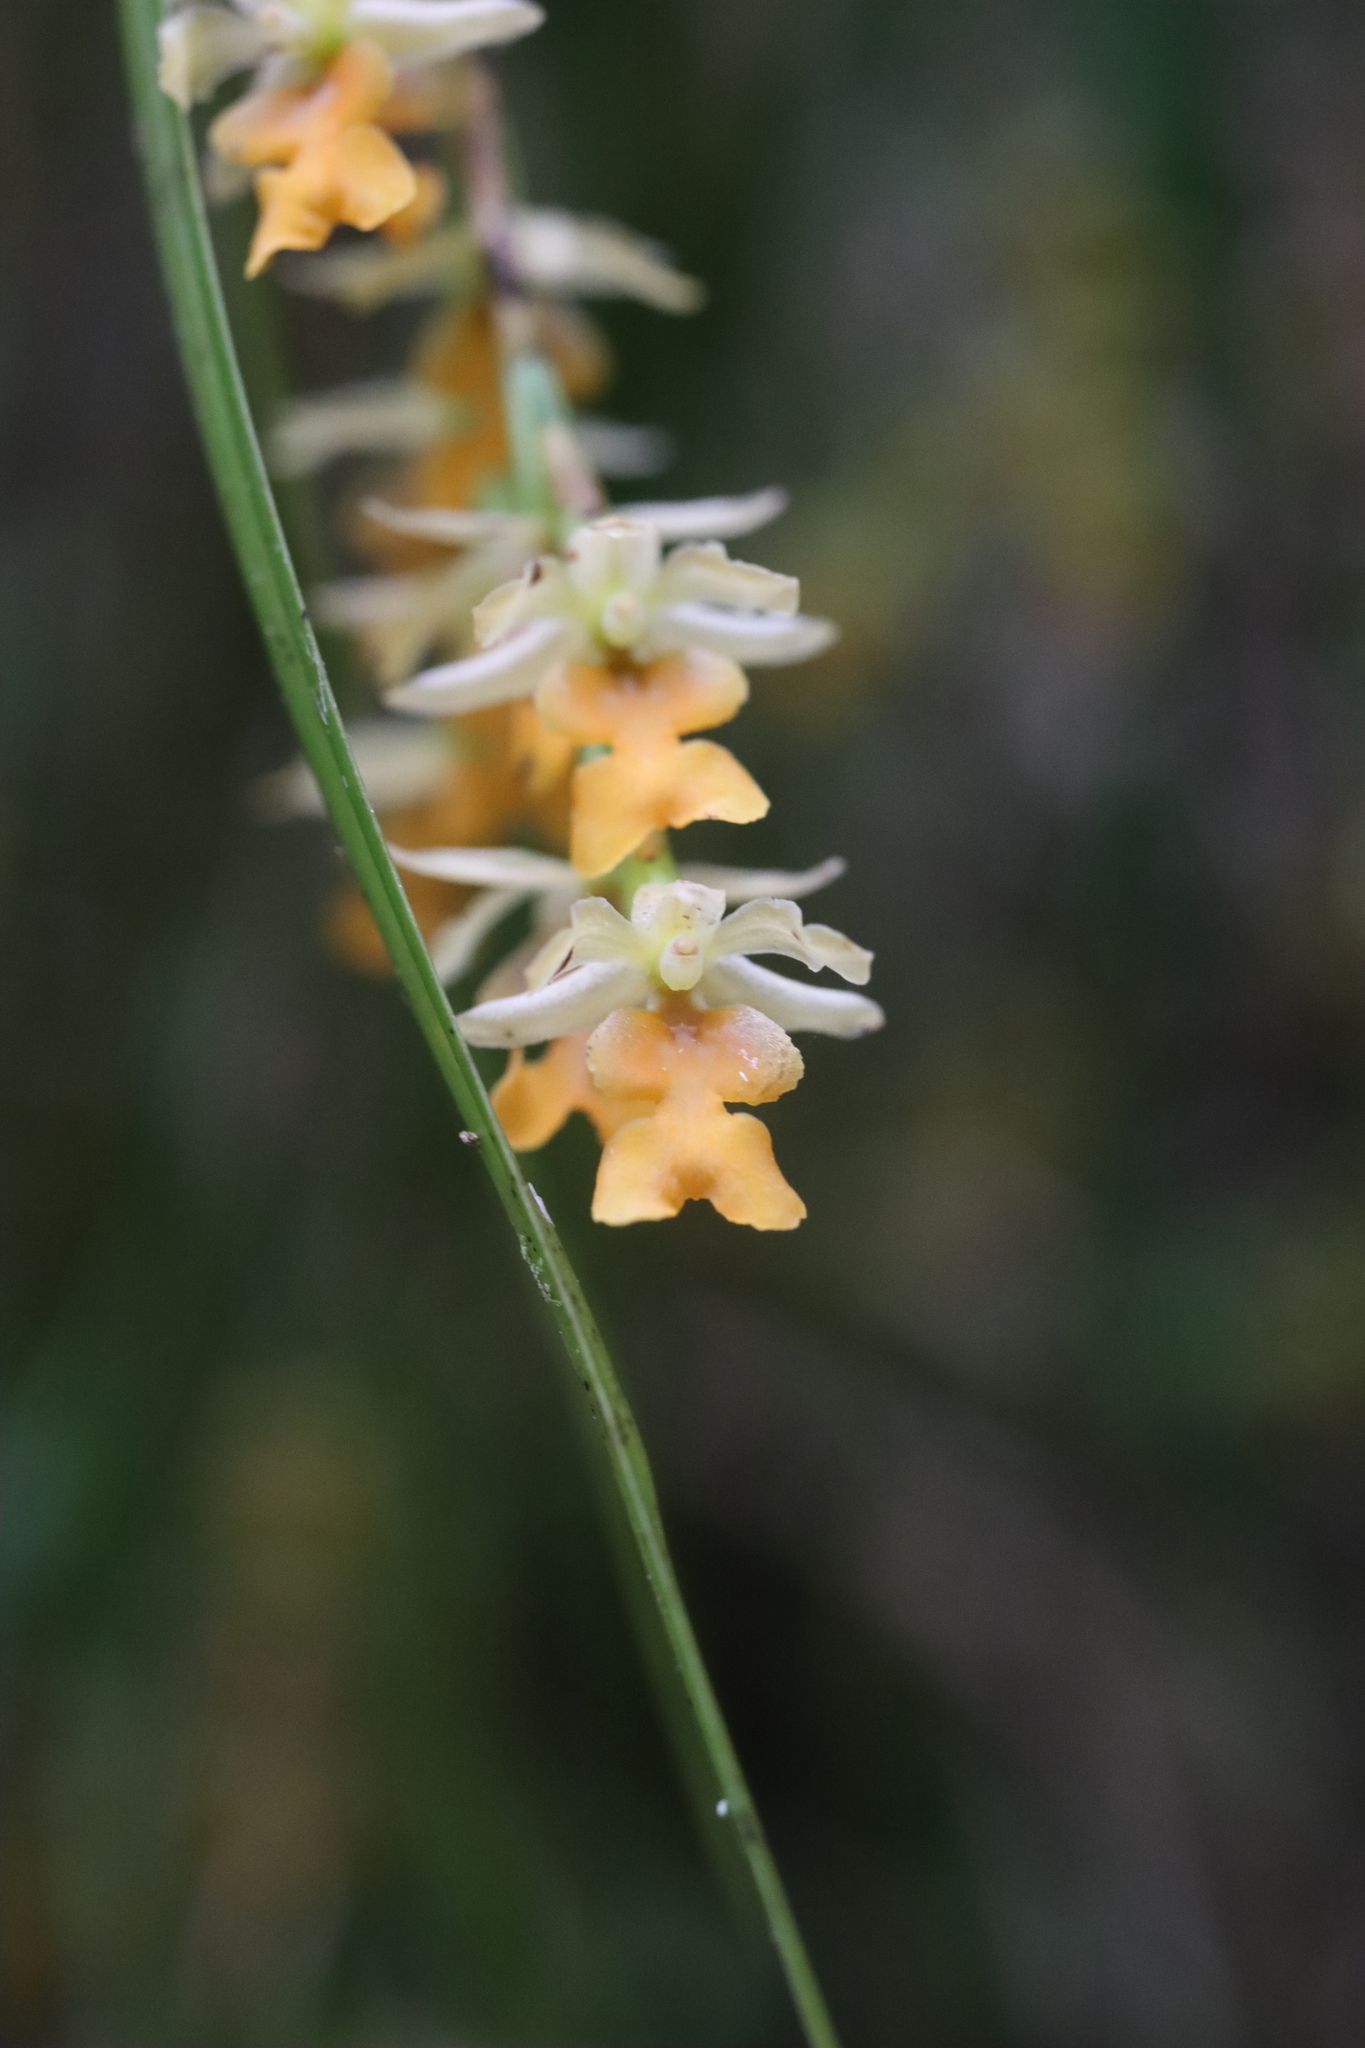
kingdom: Plantae
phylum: Tracheophyta
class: Liliopsida
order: Asparagales
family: Orchidaceae
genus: Earina
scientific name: Earina mucronata
